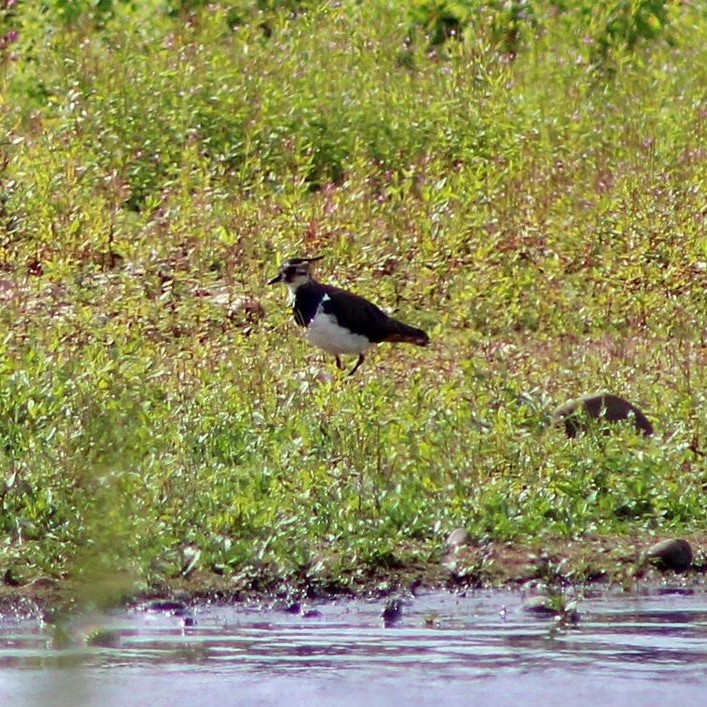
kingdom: Animalia
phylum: Chordata
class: Aves
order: Charadriiformes
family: Charadriidae
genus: Vanellus
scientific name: Vanellus vanellus
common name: Northern lapwing
